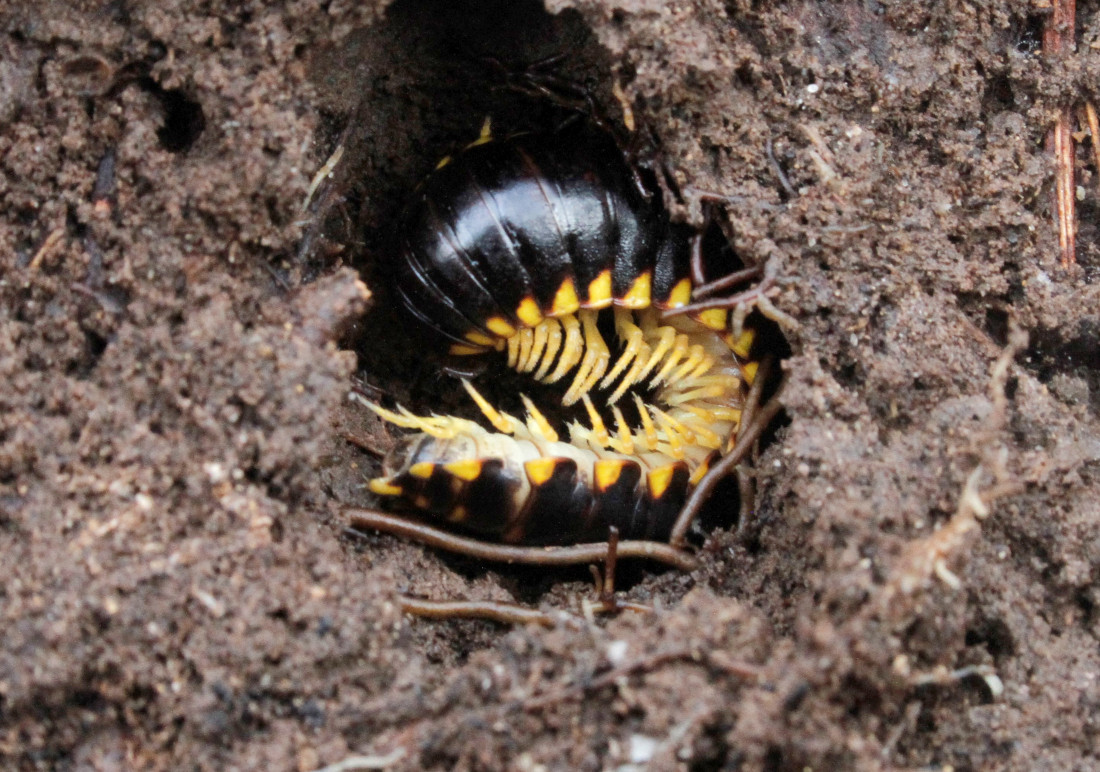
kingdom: Animalia
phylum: Arthropoda
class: Diplopoda
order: Polydesmida
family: Xystodesmidae
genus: Apheloria
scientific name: Apheloria tigana
